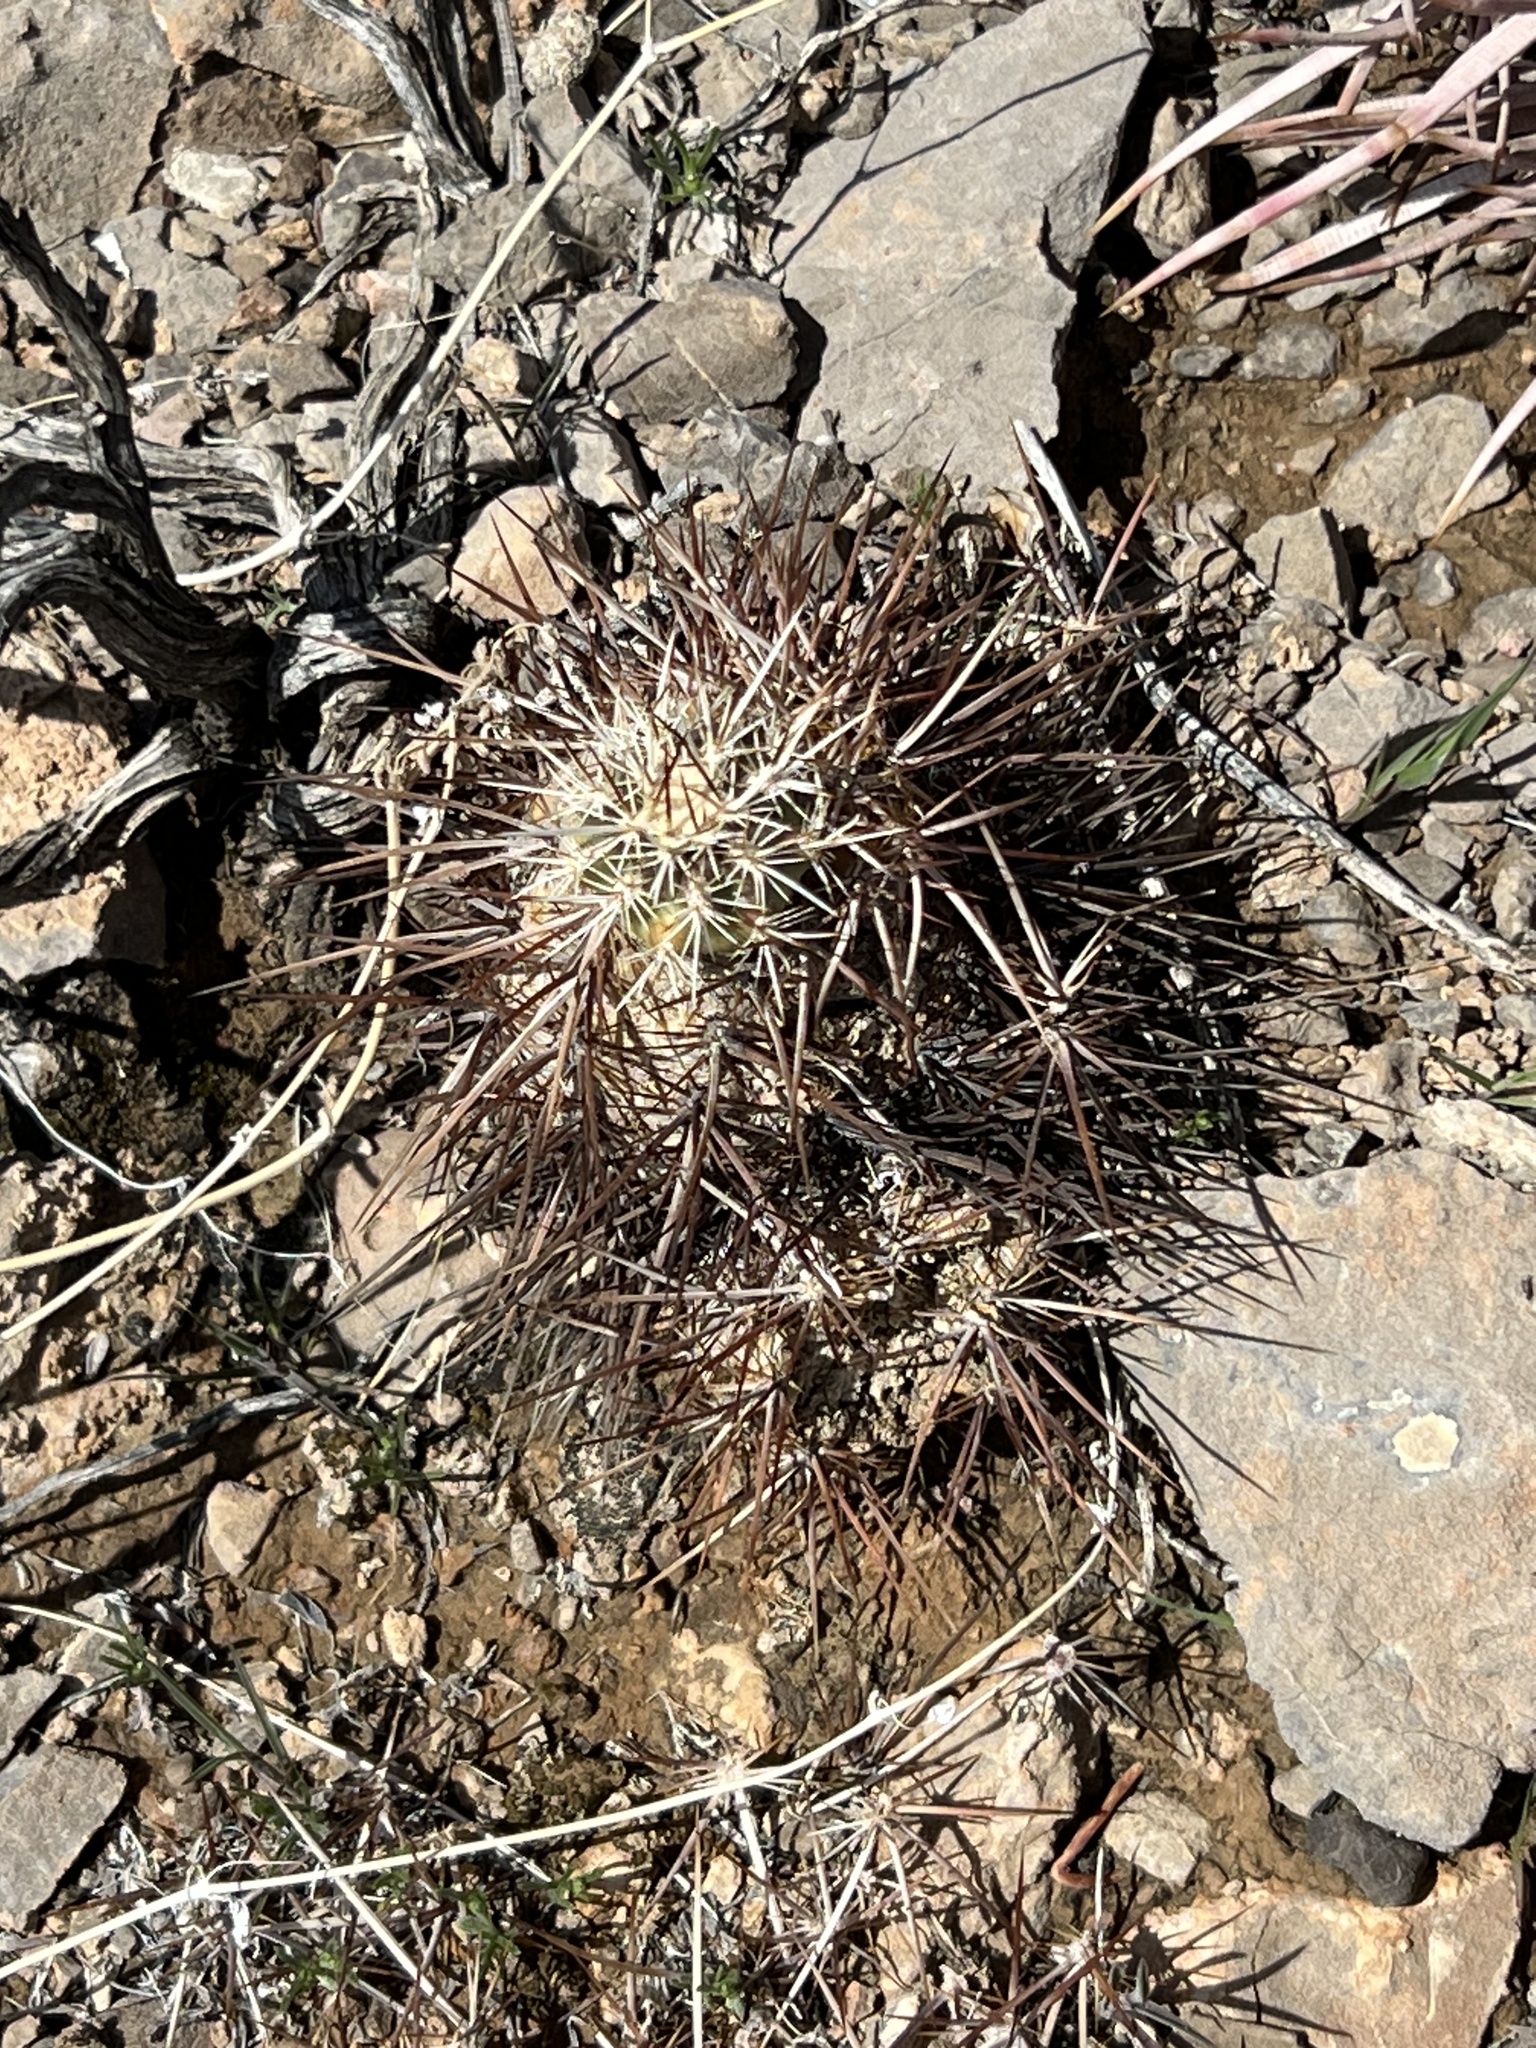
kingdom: Plantae
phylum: Tracheophyta
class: Magnoliopsida
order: Caryophyllales
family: Cactaceae
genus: Echinocereus
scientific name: Echinocereus engelmannii
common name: Engelmann's hedgehog cactus
